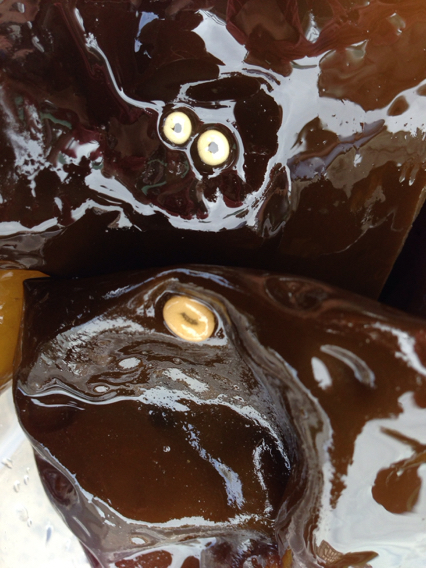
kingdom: Animalia
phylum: Mollusca
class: Gastropoda
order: Littorinimorpha
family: Littorinidae
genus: Lacuna
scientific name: Lacuna vincta
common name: Banded chink shell
